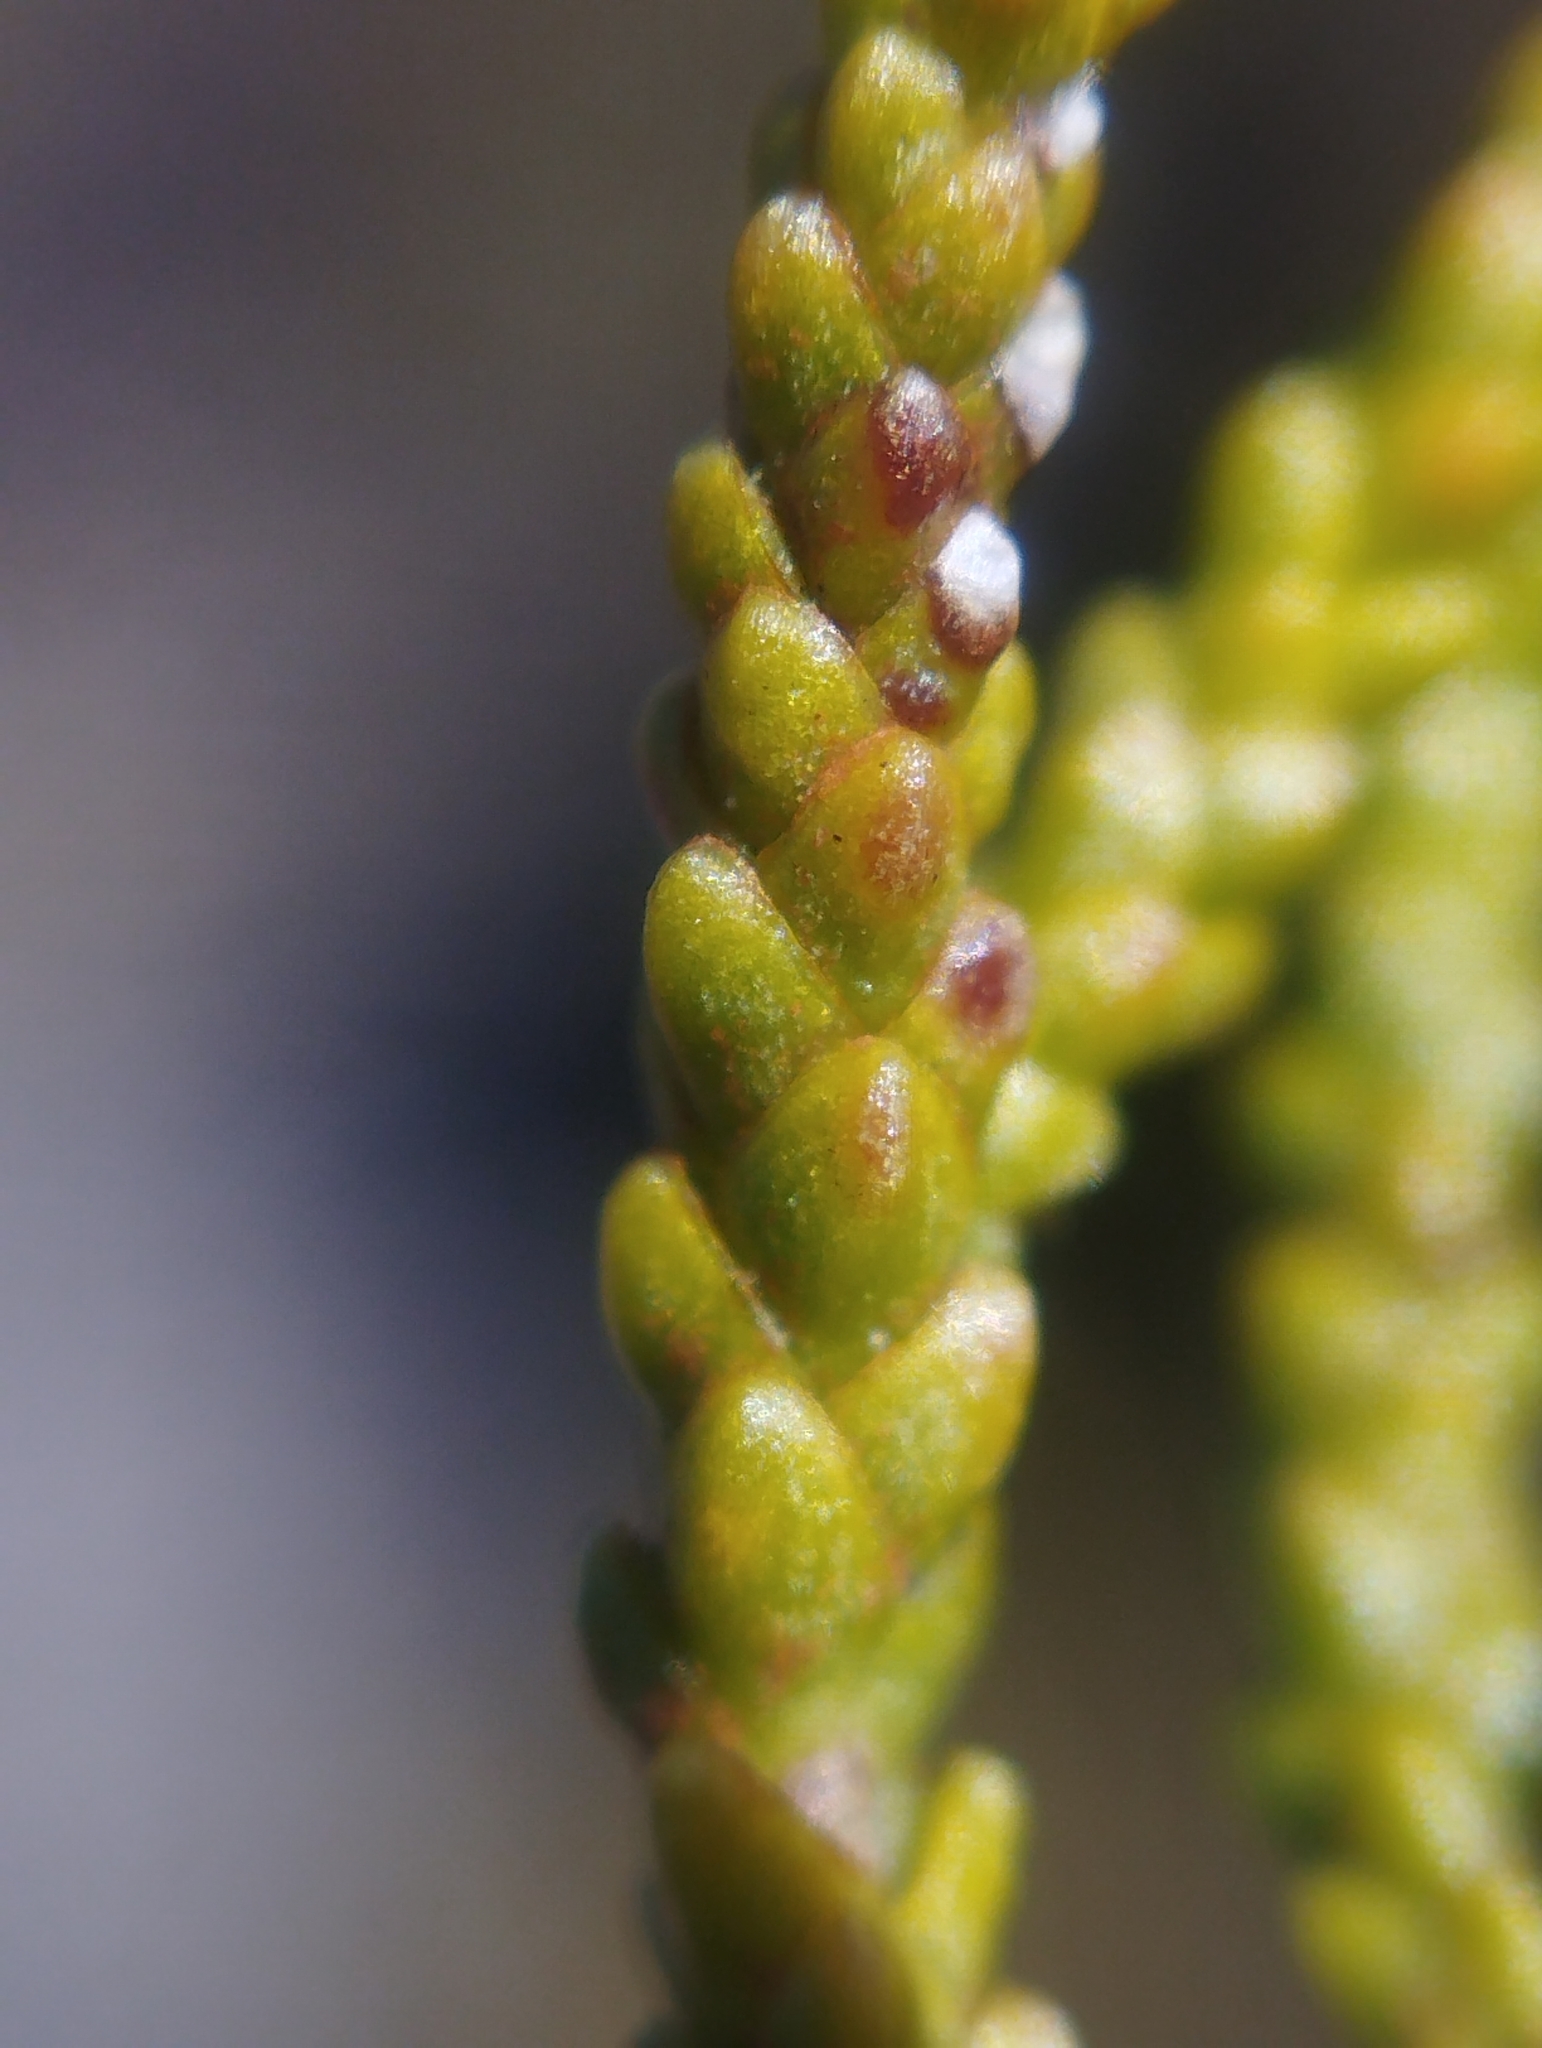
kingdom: Plantae
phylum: Tracheophyta
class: Pinopsida
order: Pinales
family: Podocarpaceae
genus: Halocarpus
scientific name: Halocarpus bidwillii
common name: Bog pine
